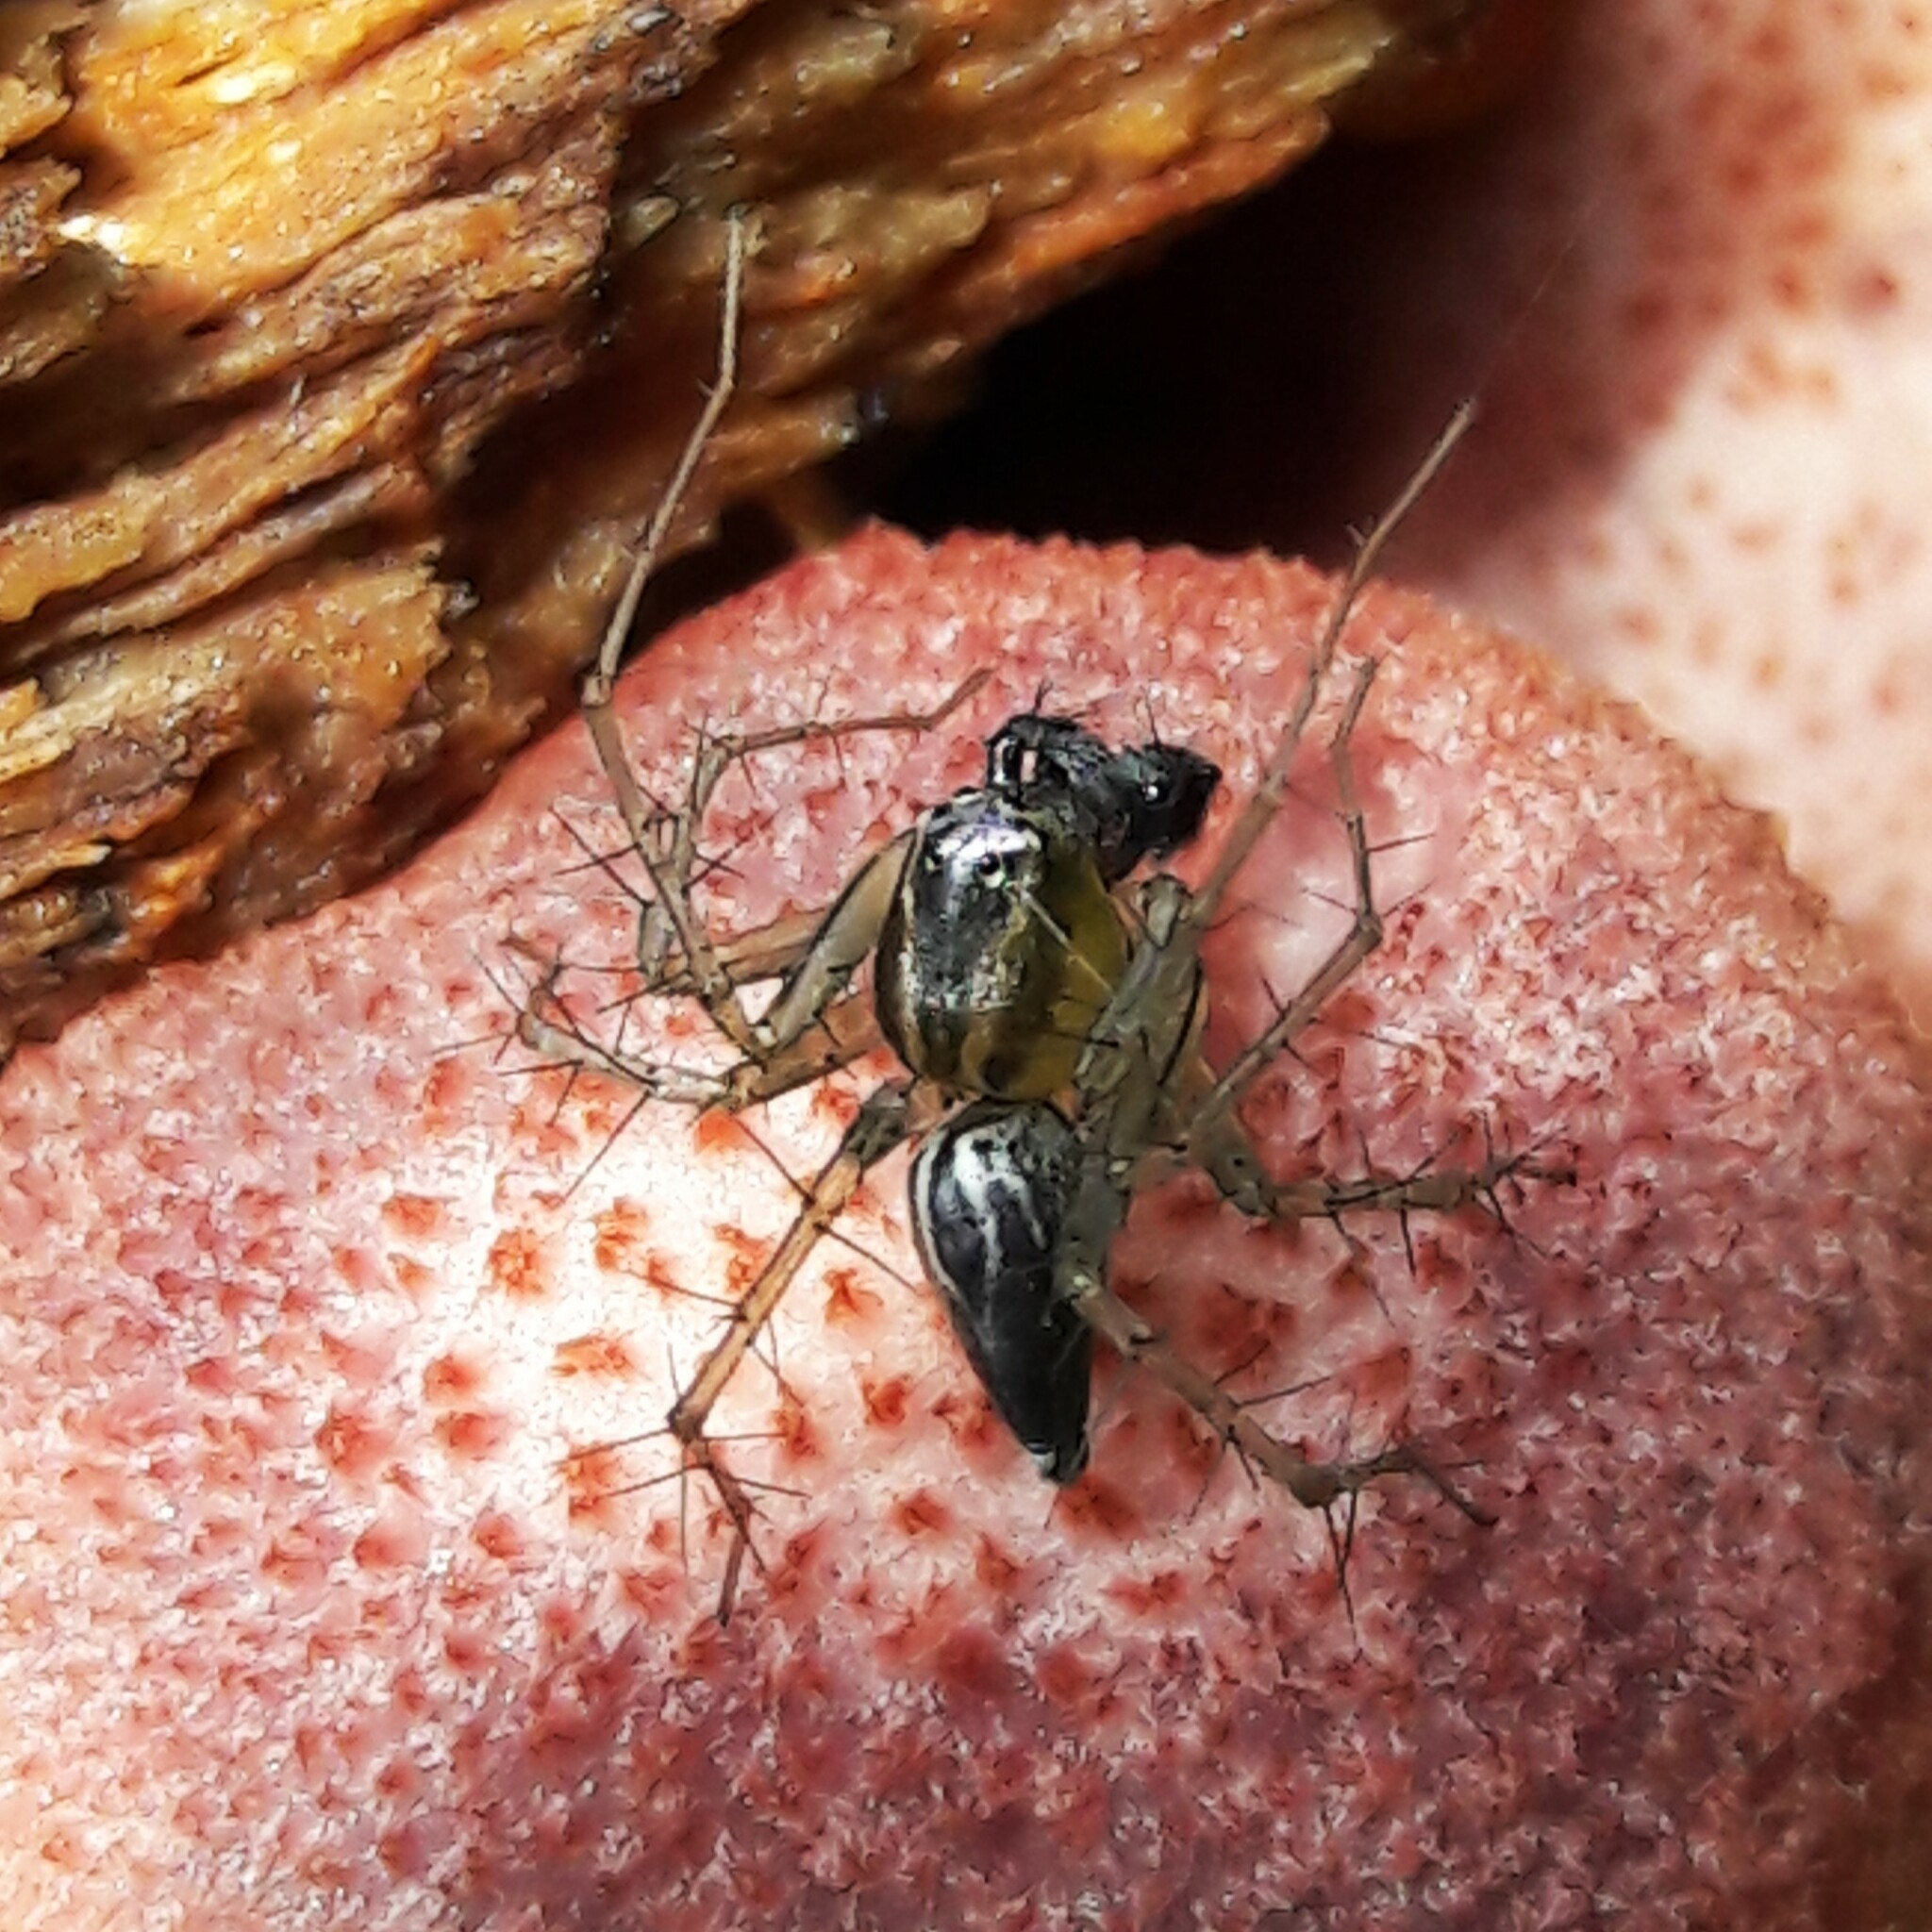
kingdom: Animalia
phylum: Arthropoda
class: Arachnida
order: Araneae
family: Oxyopidae
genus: Oxyopes
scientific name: Oxyopes salticus
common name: Lynx spiders
